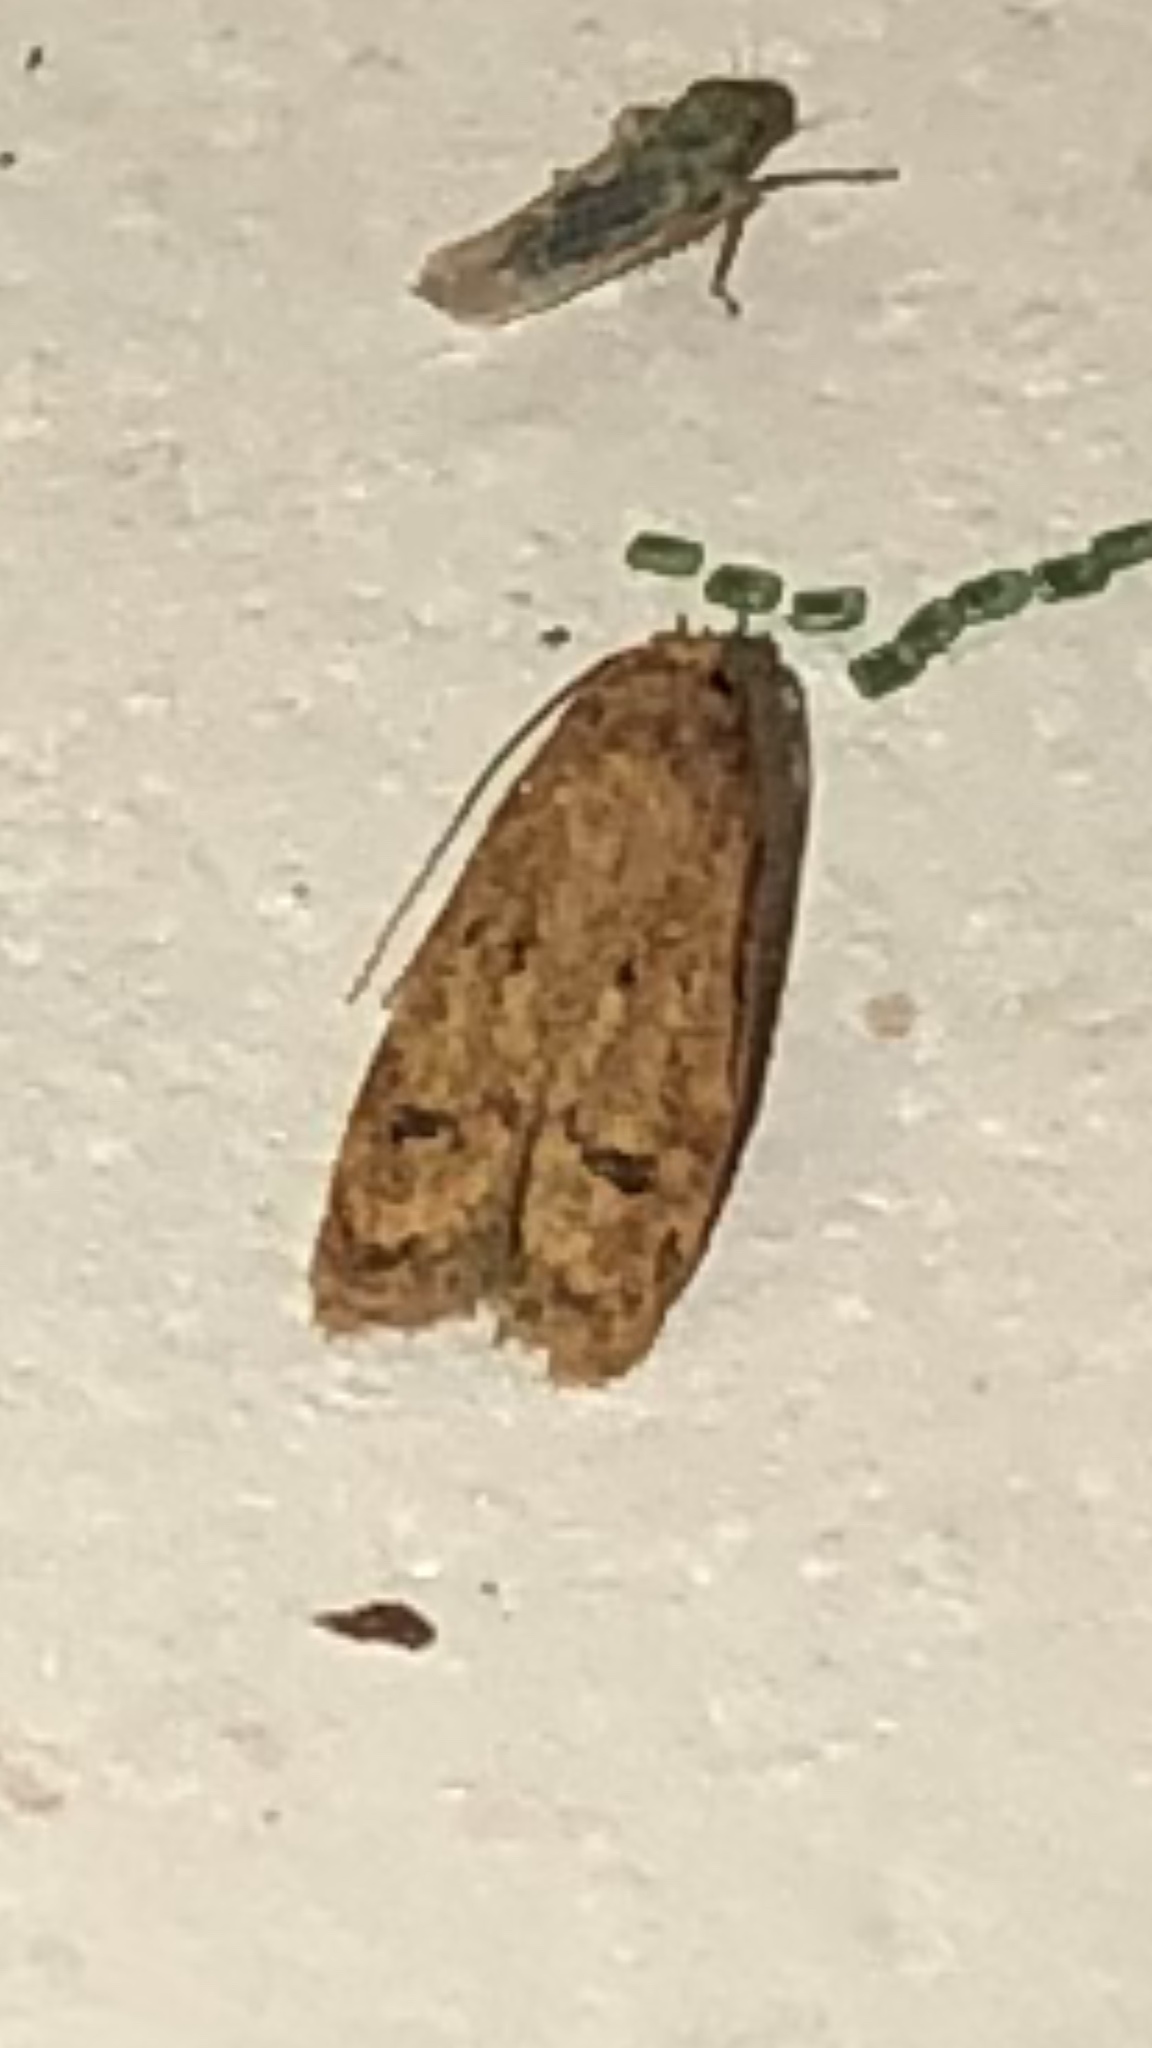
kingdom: Animalia
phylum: Arthropoda
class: Insecta
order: Lepidoptera
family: Autostichidae
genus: Gerdana
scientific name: Gerdana caritella
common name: Gerdana moth
